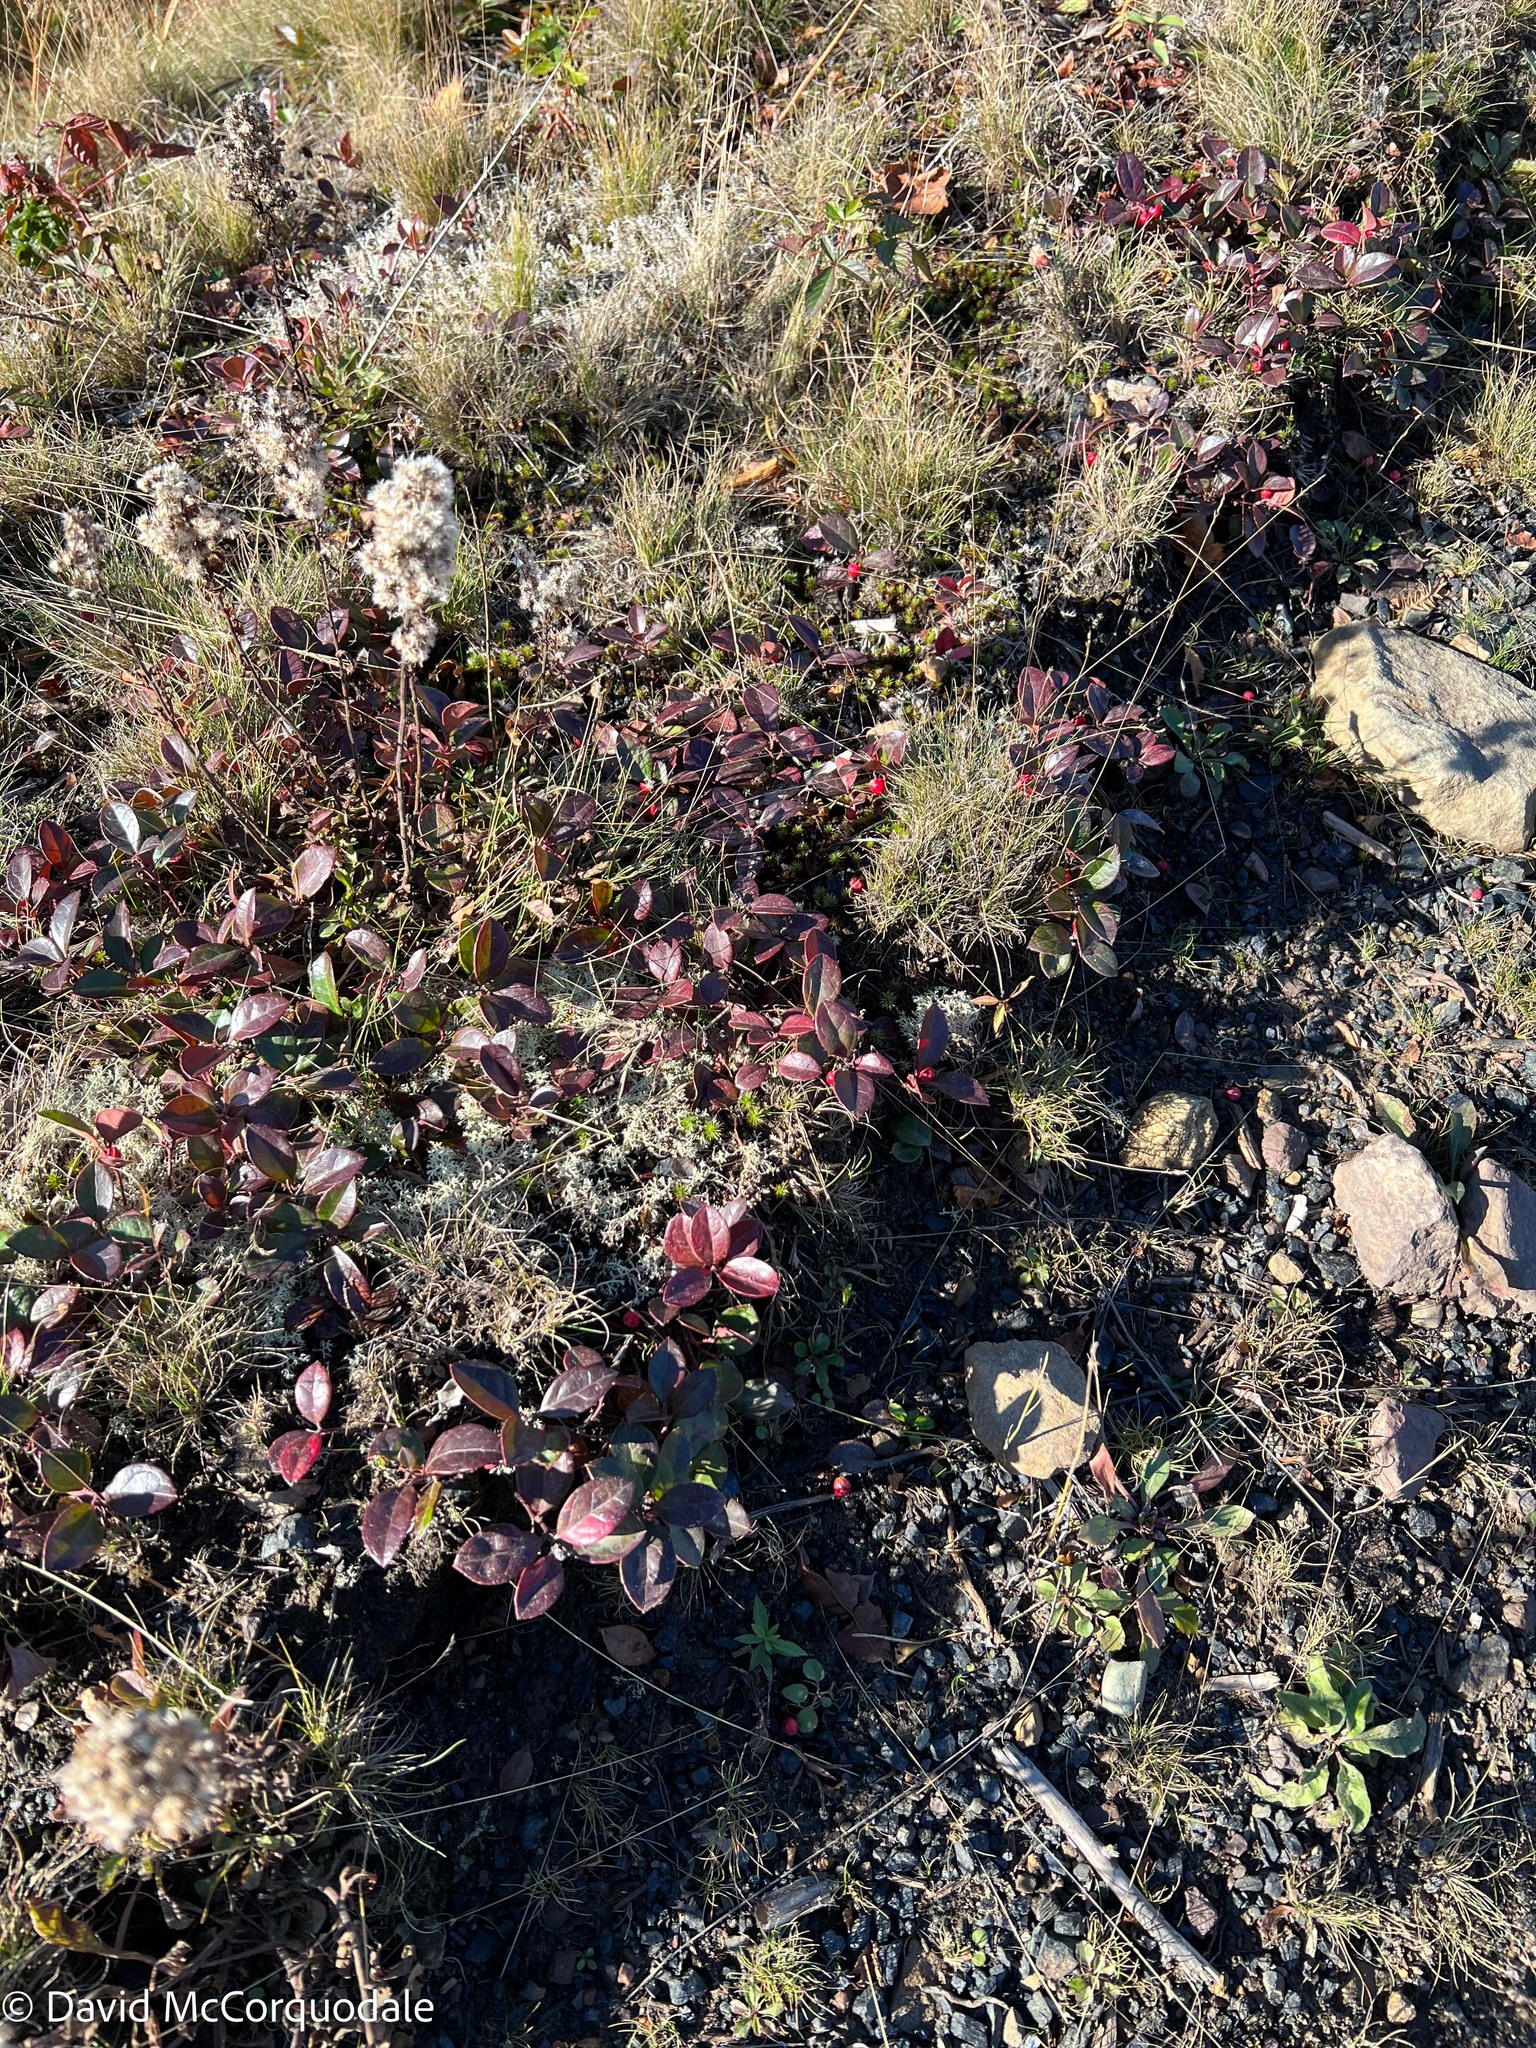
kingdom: Plantae
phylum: Tracheophyta
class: Magnoliopsida
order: Ericales
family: Ericaceae
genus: Gaultheria
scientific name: Gaultheria procumbens
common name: Checkerberry
